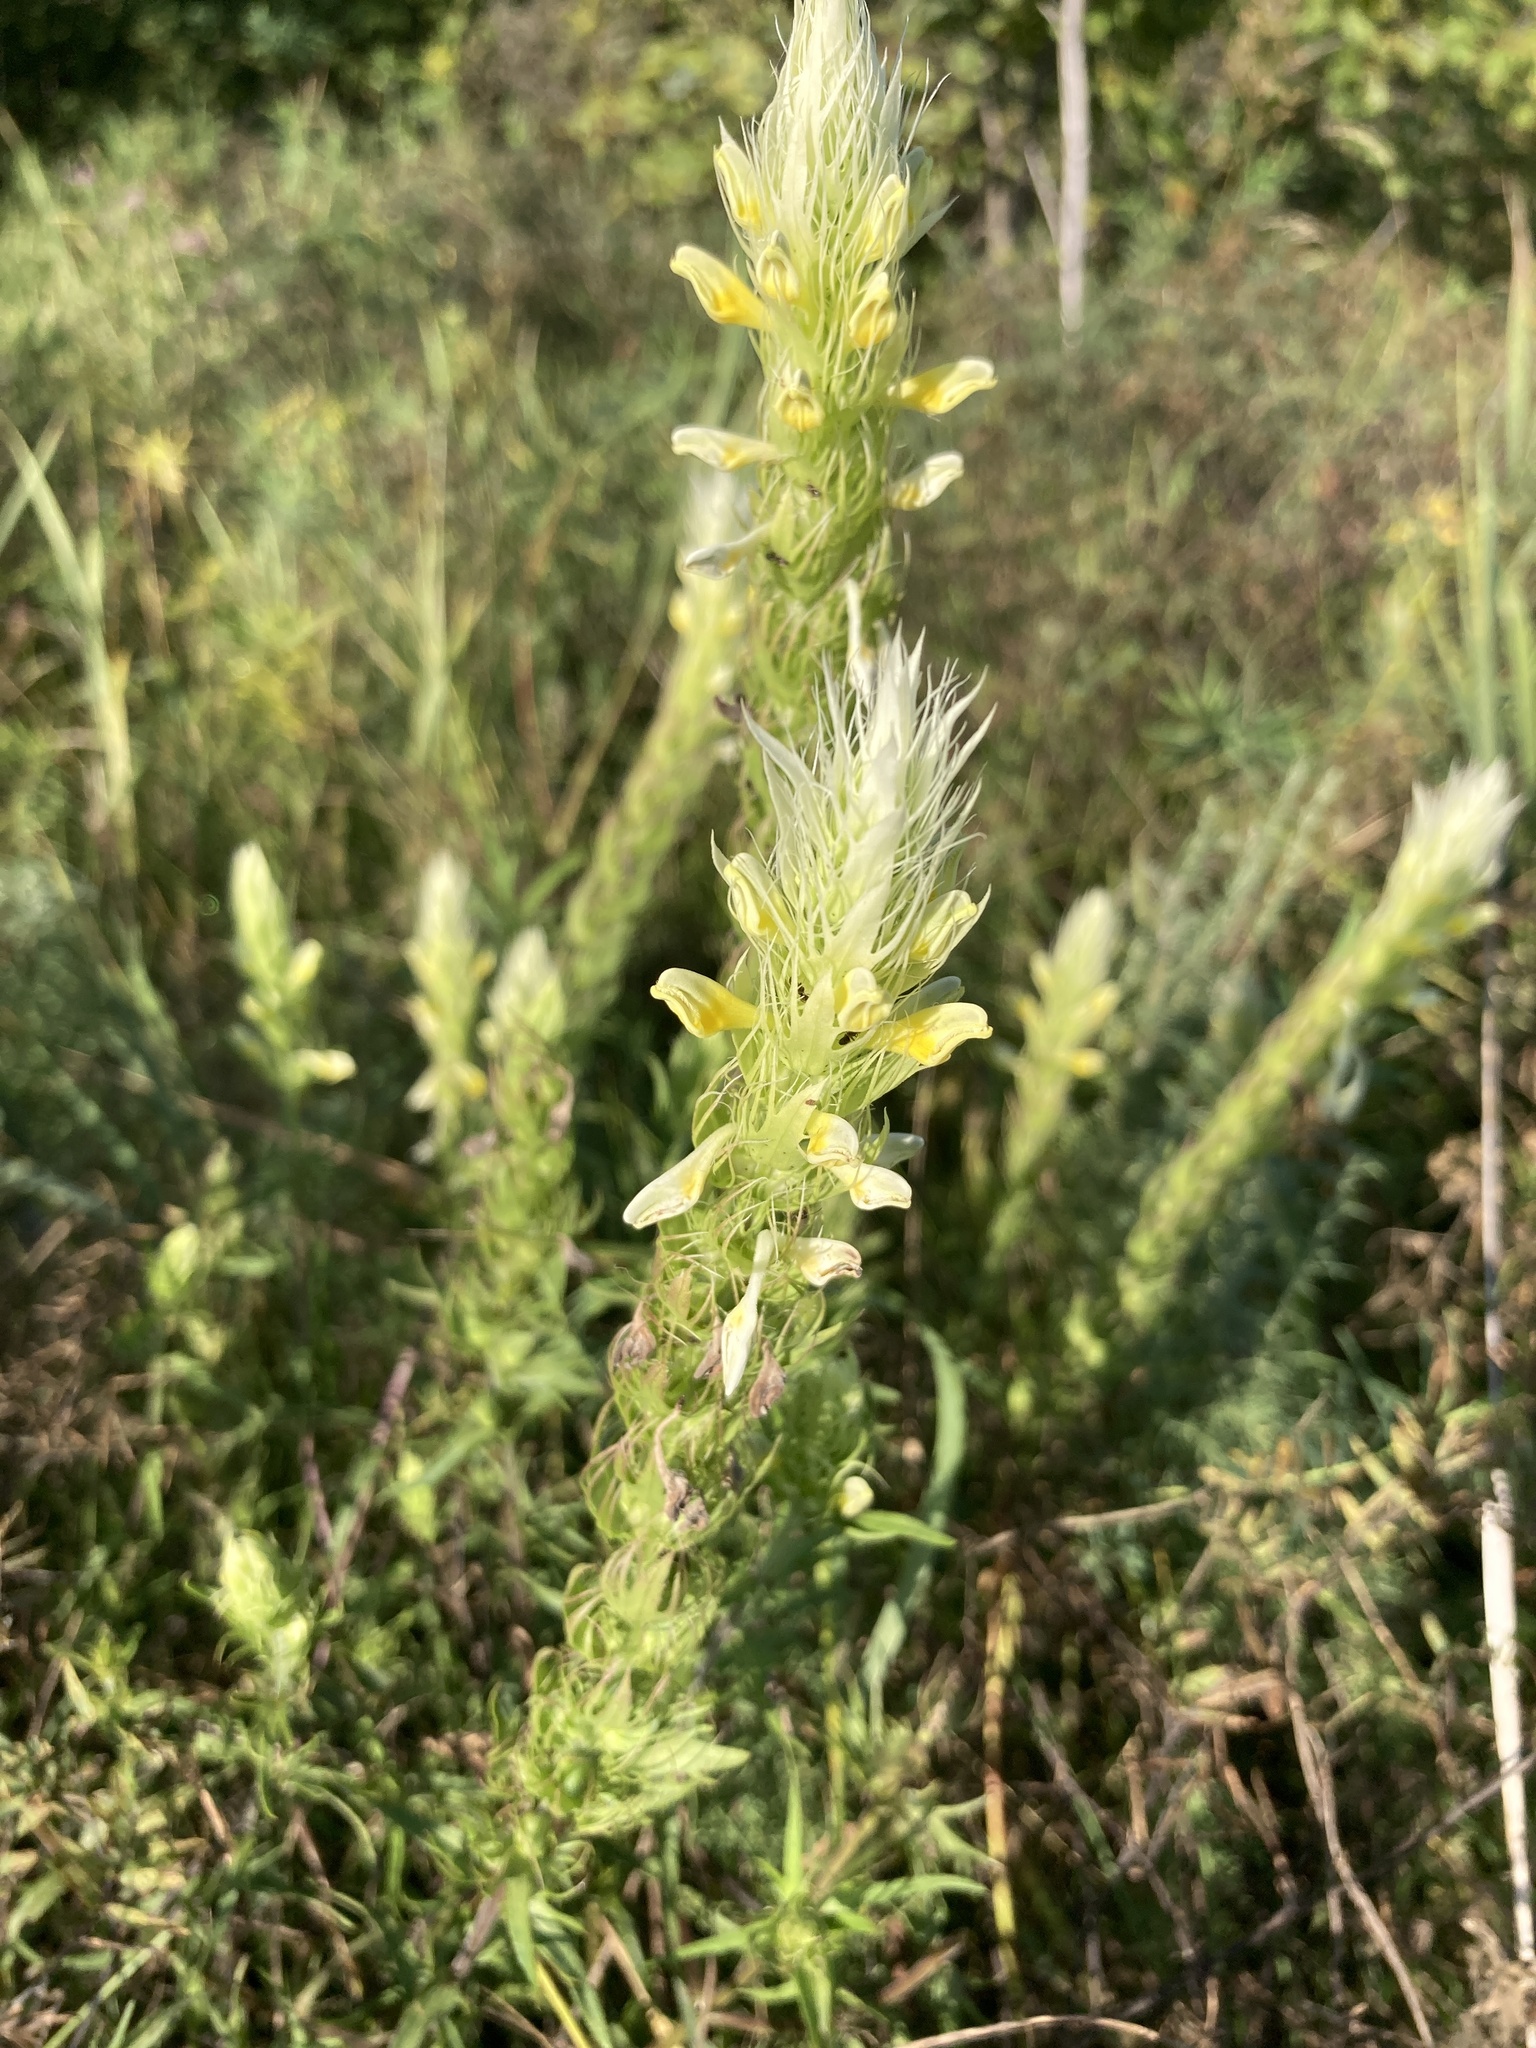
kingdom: Plantae
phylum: Tracheophyta
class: Magnoliopsida
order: Lamiales
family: Orobanchaceae
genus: Melampyrum
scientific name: Melampyrum arvense
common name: Field cow-wheat
